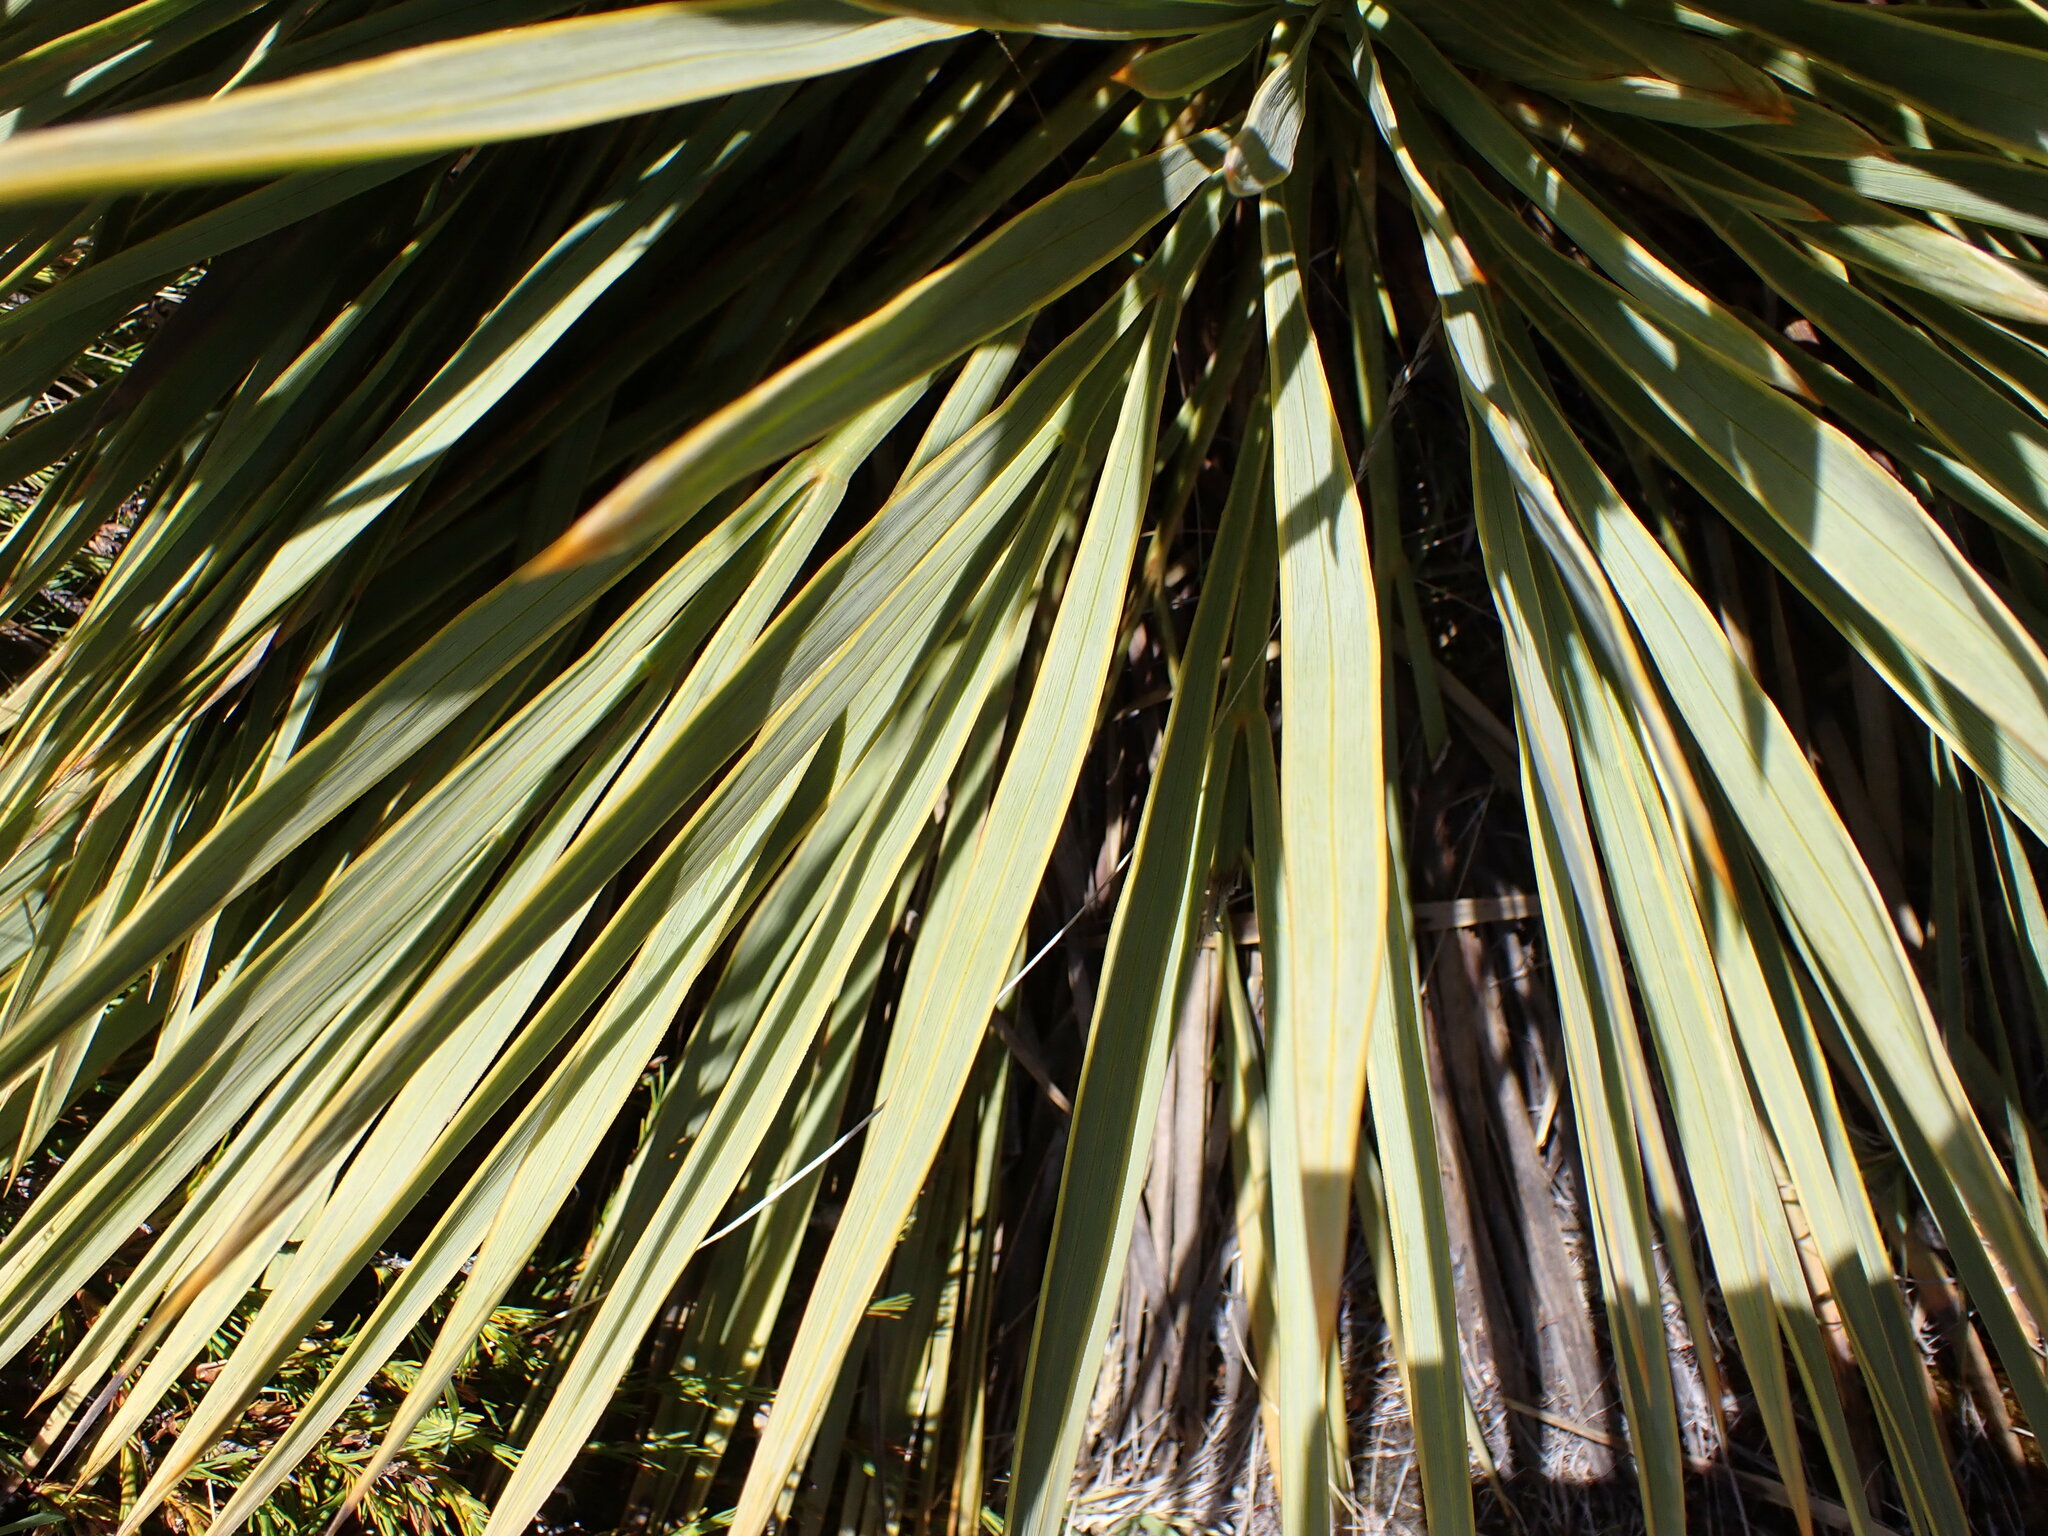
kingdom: Plantae
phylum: Tracheophyta
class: Magnoliopsida
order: Apiales
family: Apiaceae
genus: Aciphylla
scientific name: Aciphylla aurea
